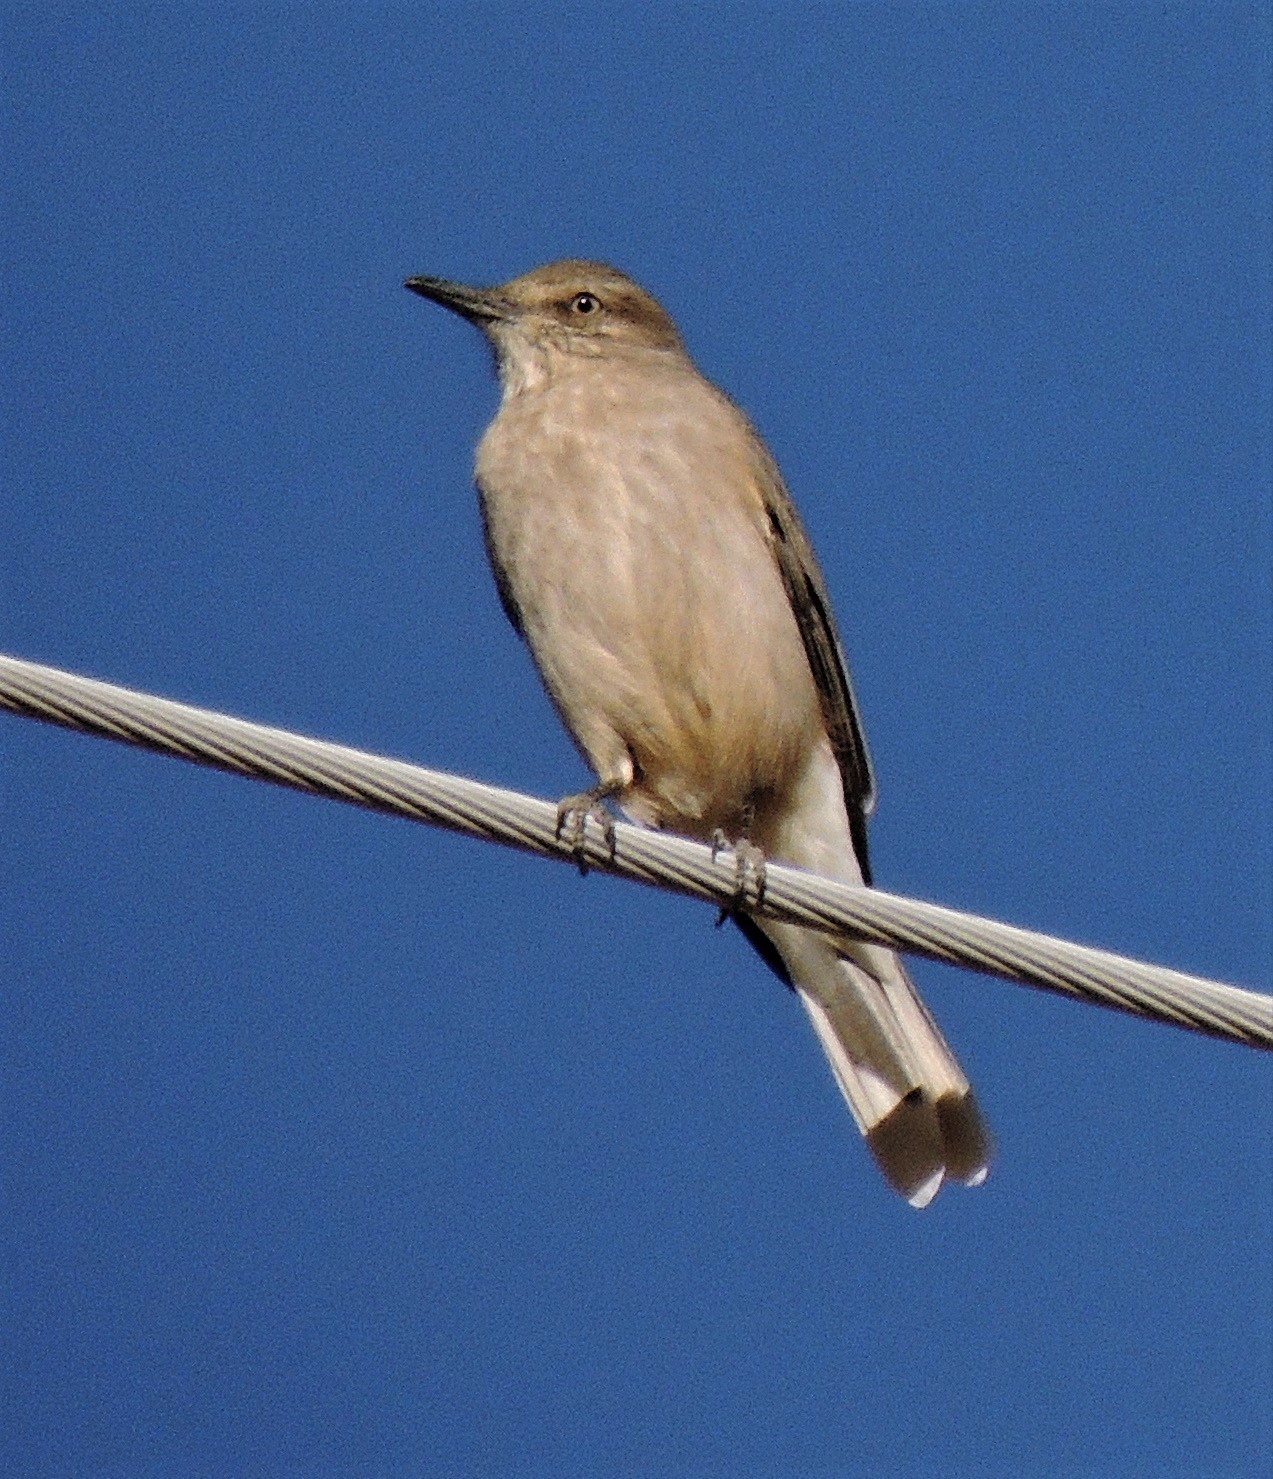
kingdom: Animalia
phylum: Chordata
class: Aves
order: Passeriformes
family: Tyrannidae
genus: Agriornis
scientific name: Agriornis montanus
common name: Black-billed shrike-tyrant
